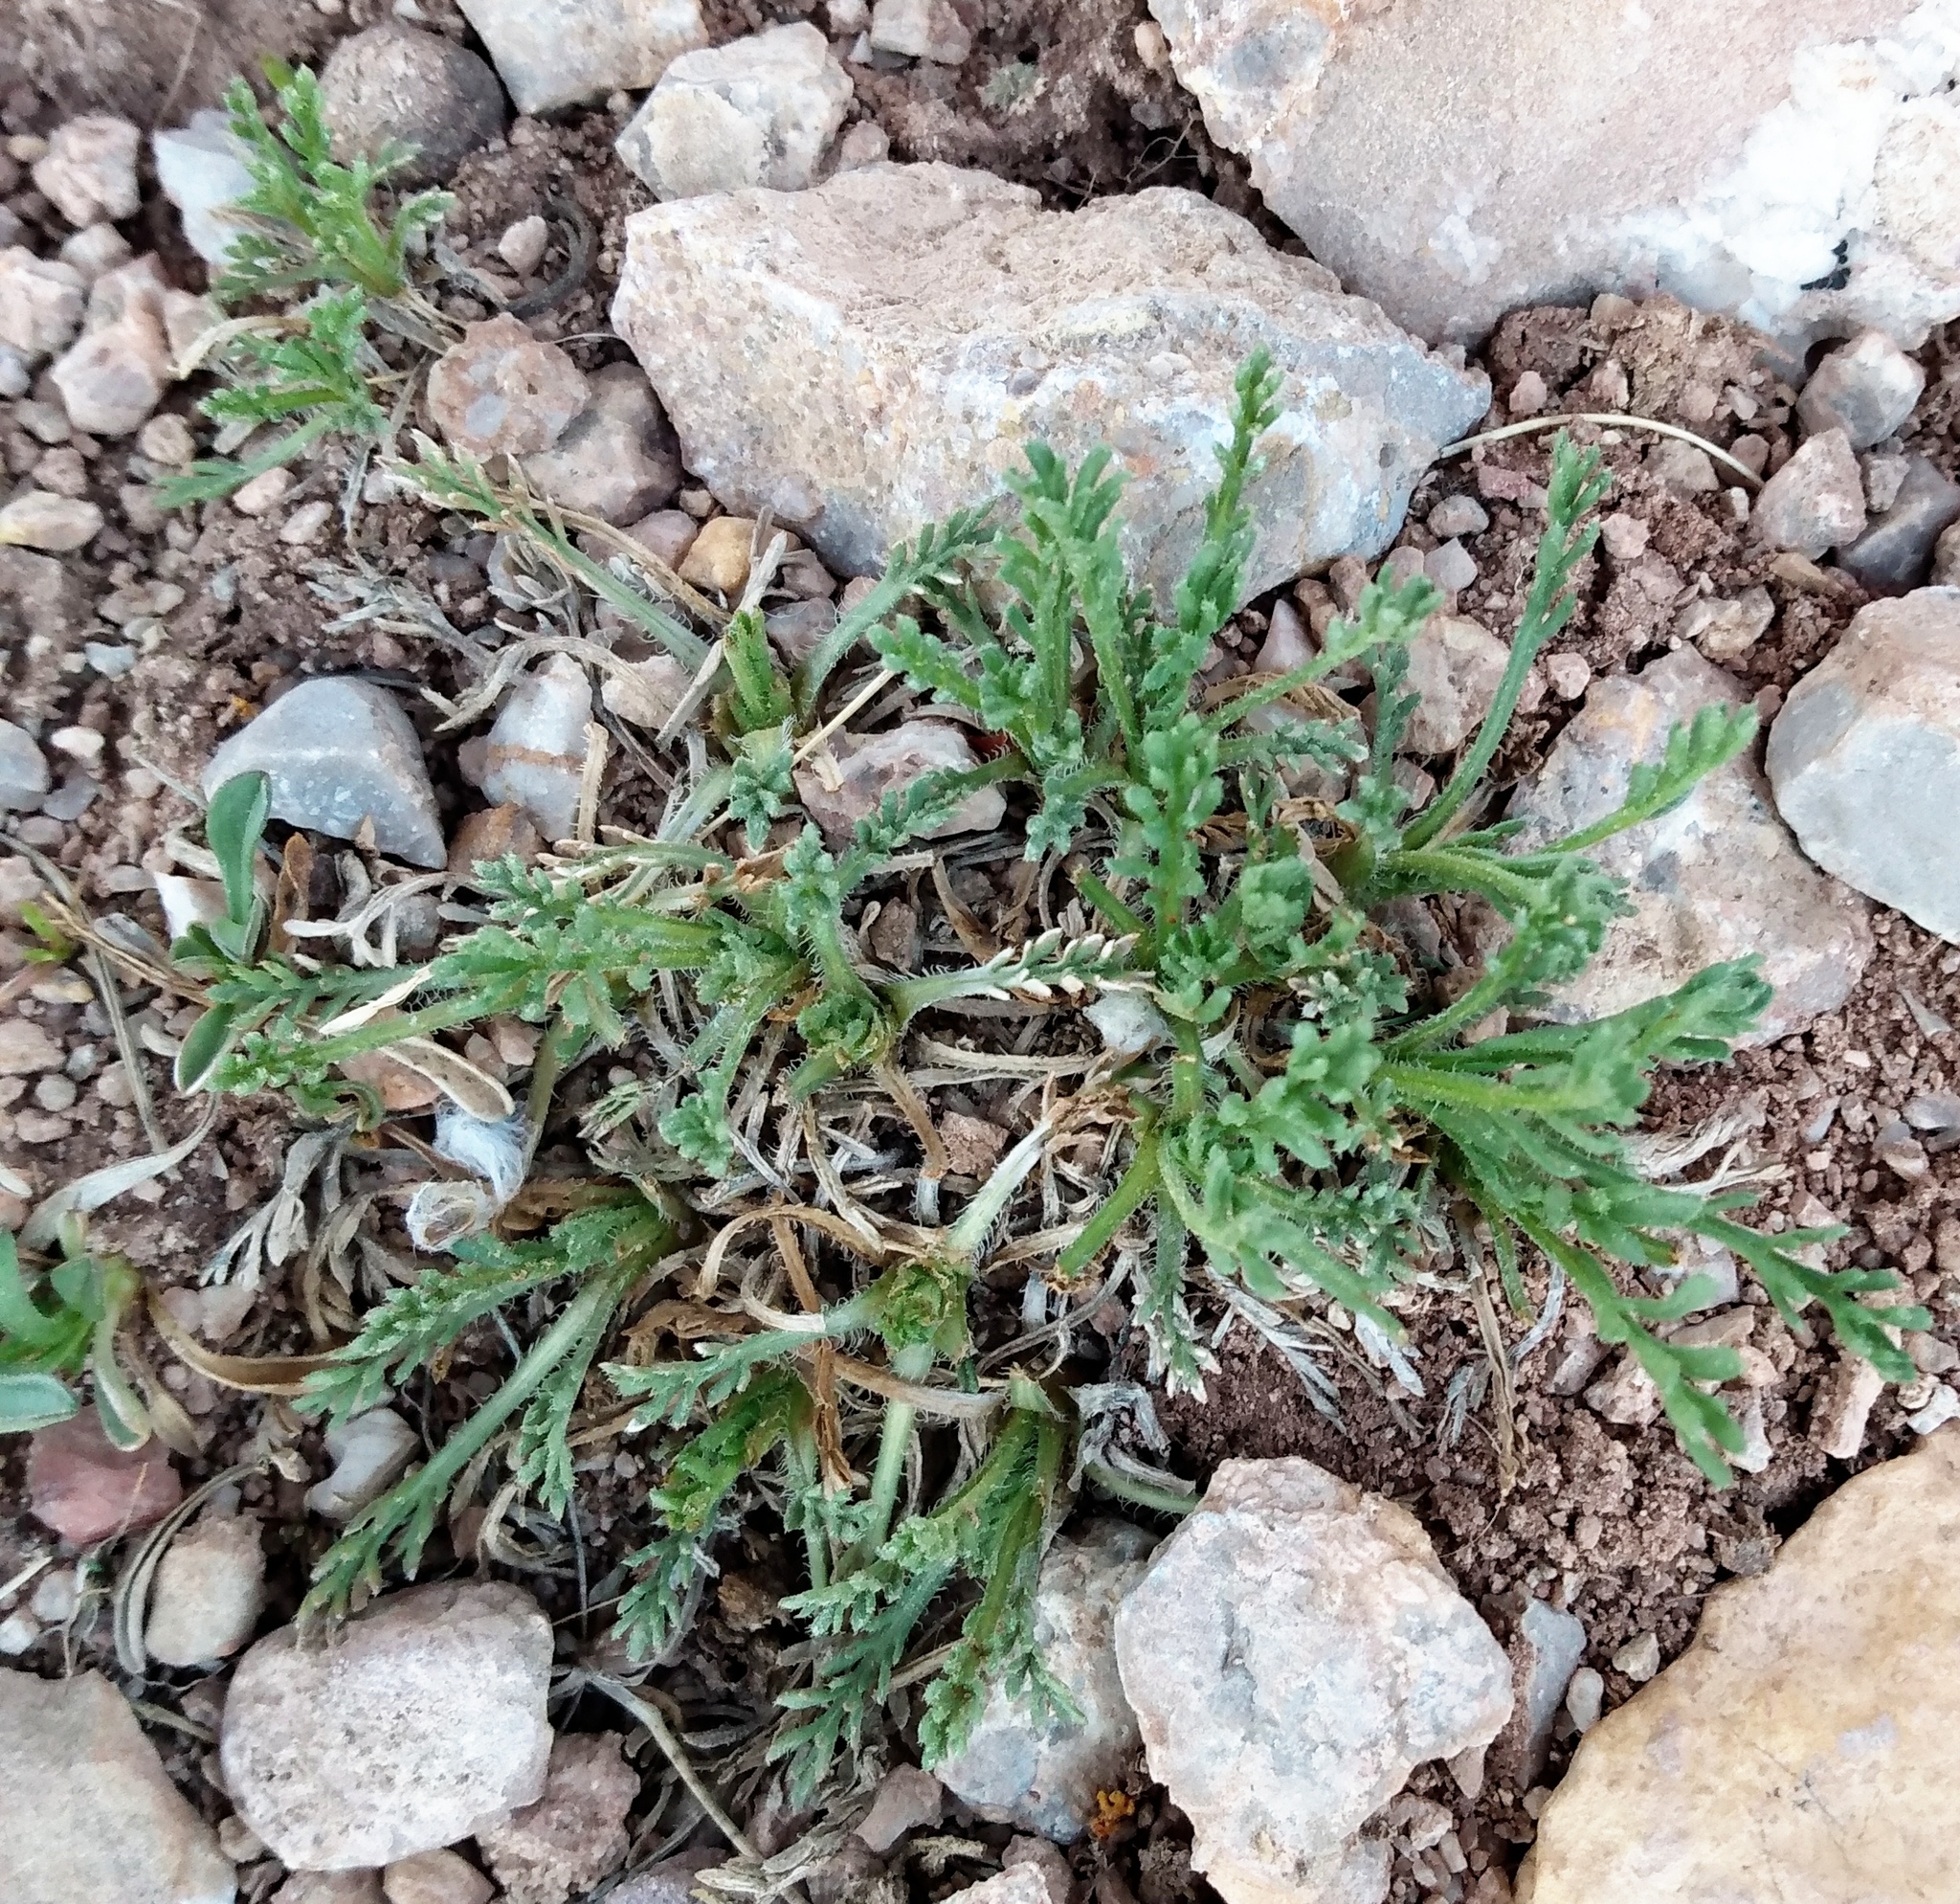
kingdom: Plantae
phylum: Tracheophyta
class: Magnoliopsida
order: Asterales
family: Asteraceae
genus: Erigeron
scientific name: Erigeron pinnatisectus
